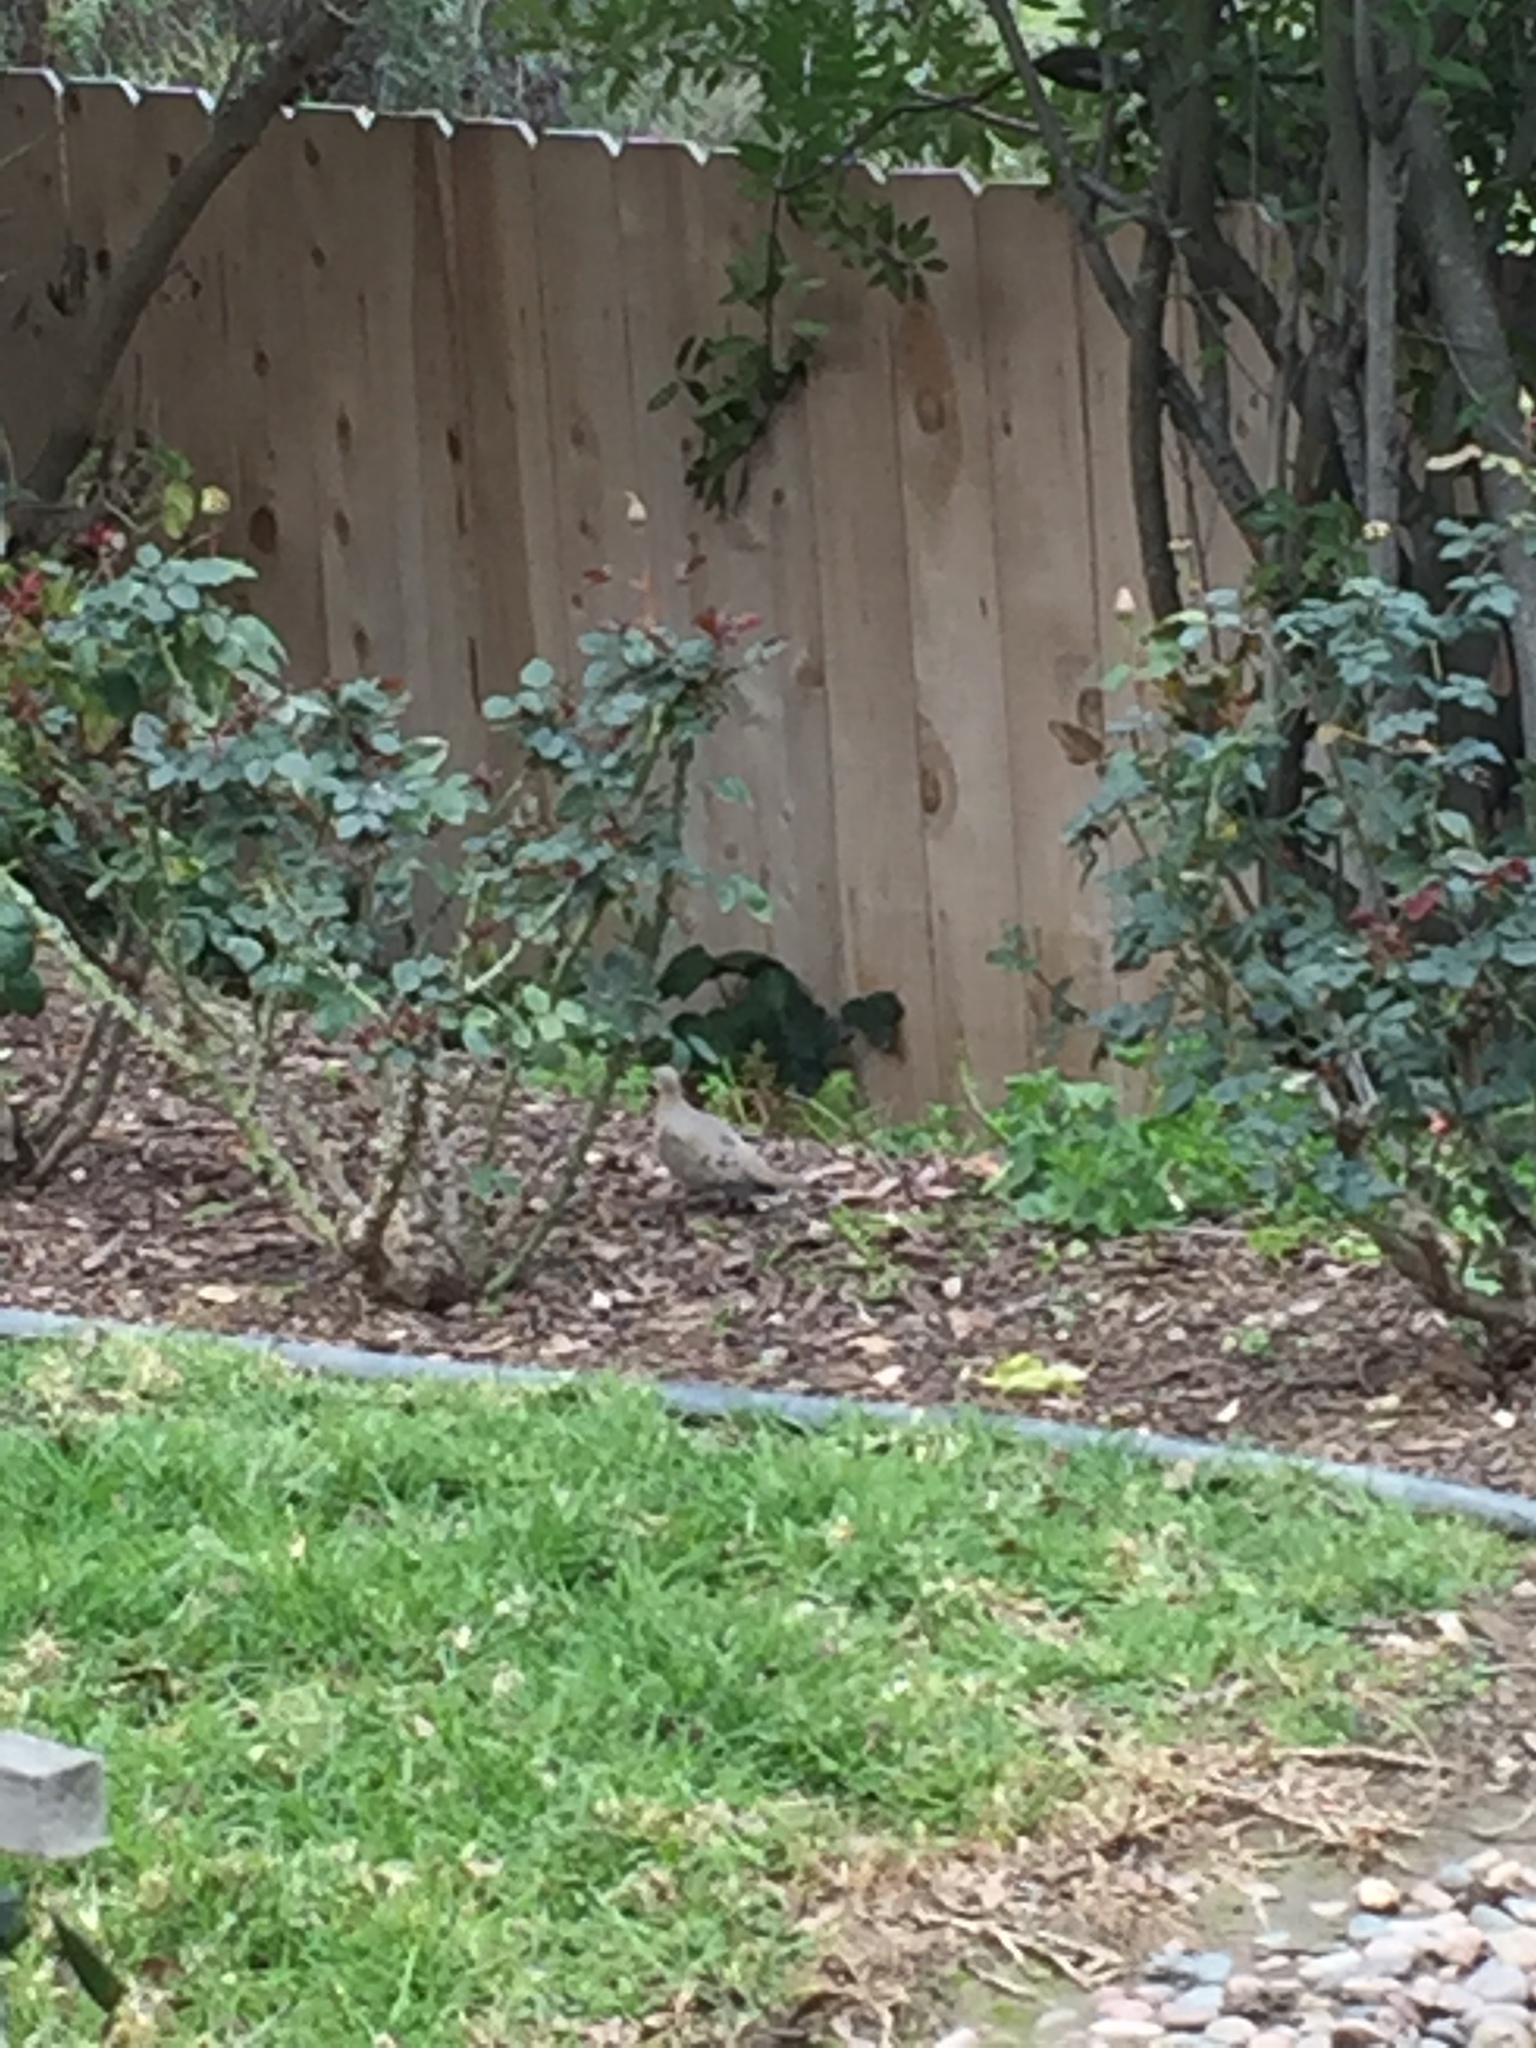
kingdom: Animalia
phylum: Chordata
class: Aves
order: Columbiformes
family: Columbidae
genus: Zenaida
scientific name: Zenaida macroura
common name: Mourning dove
